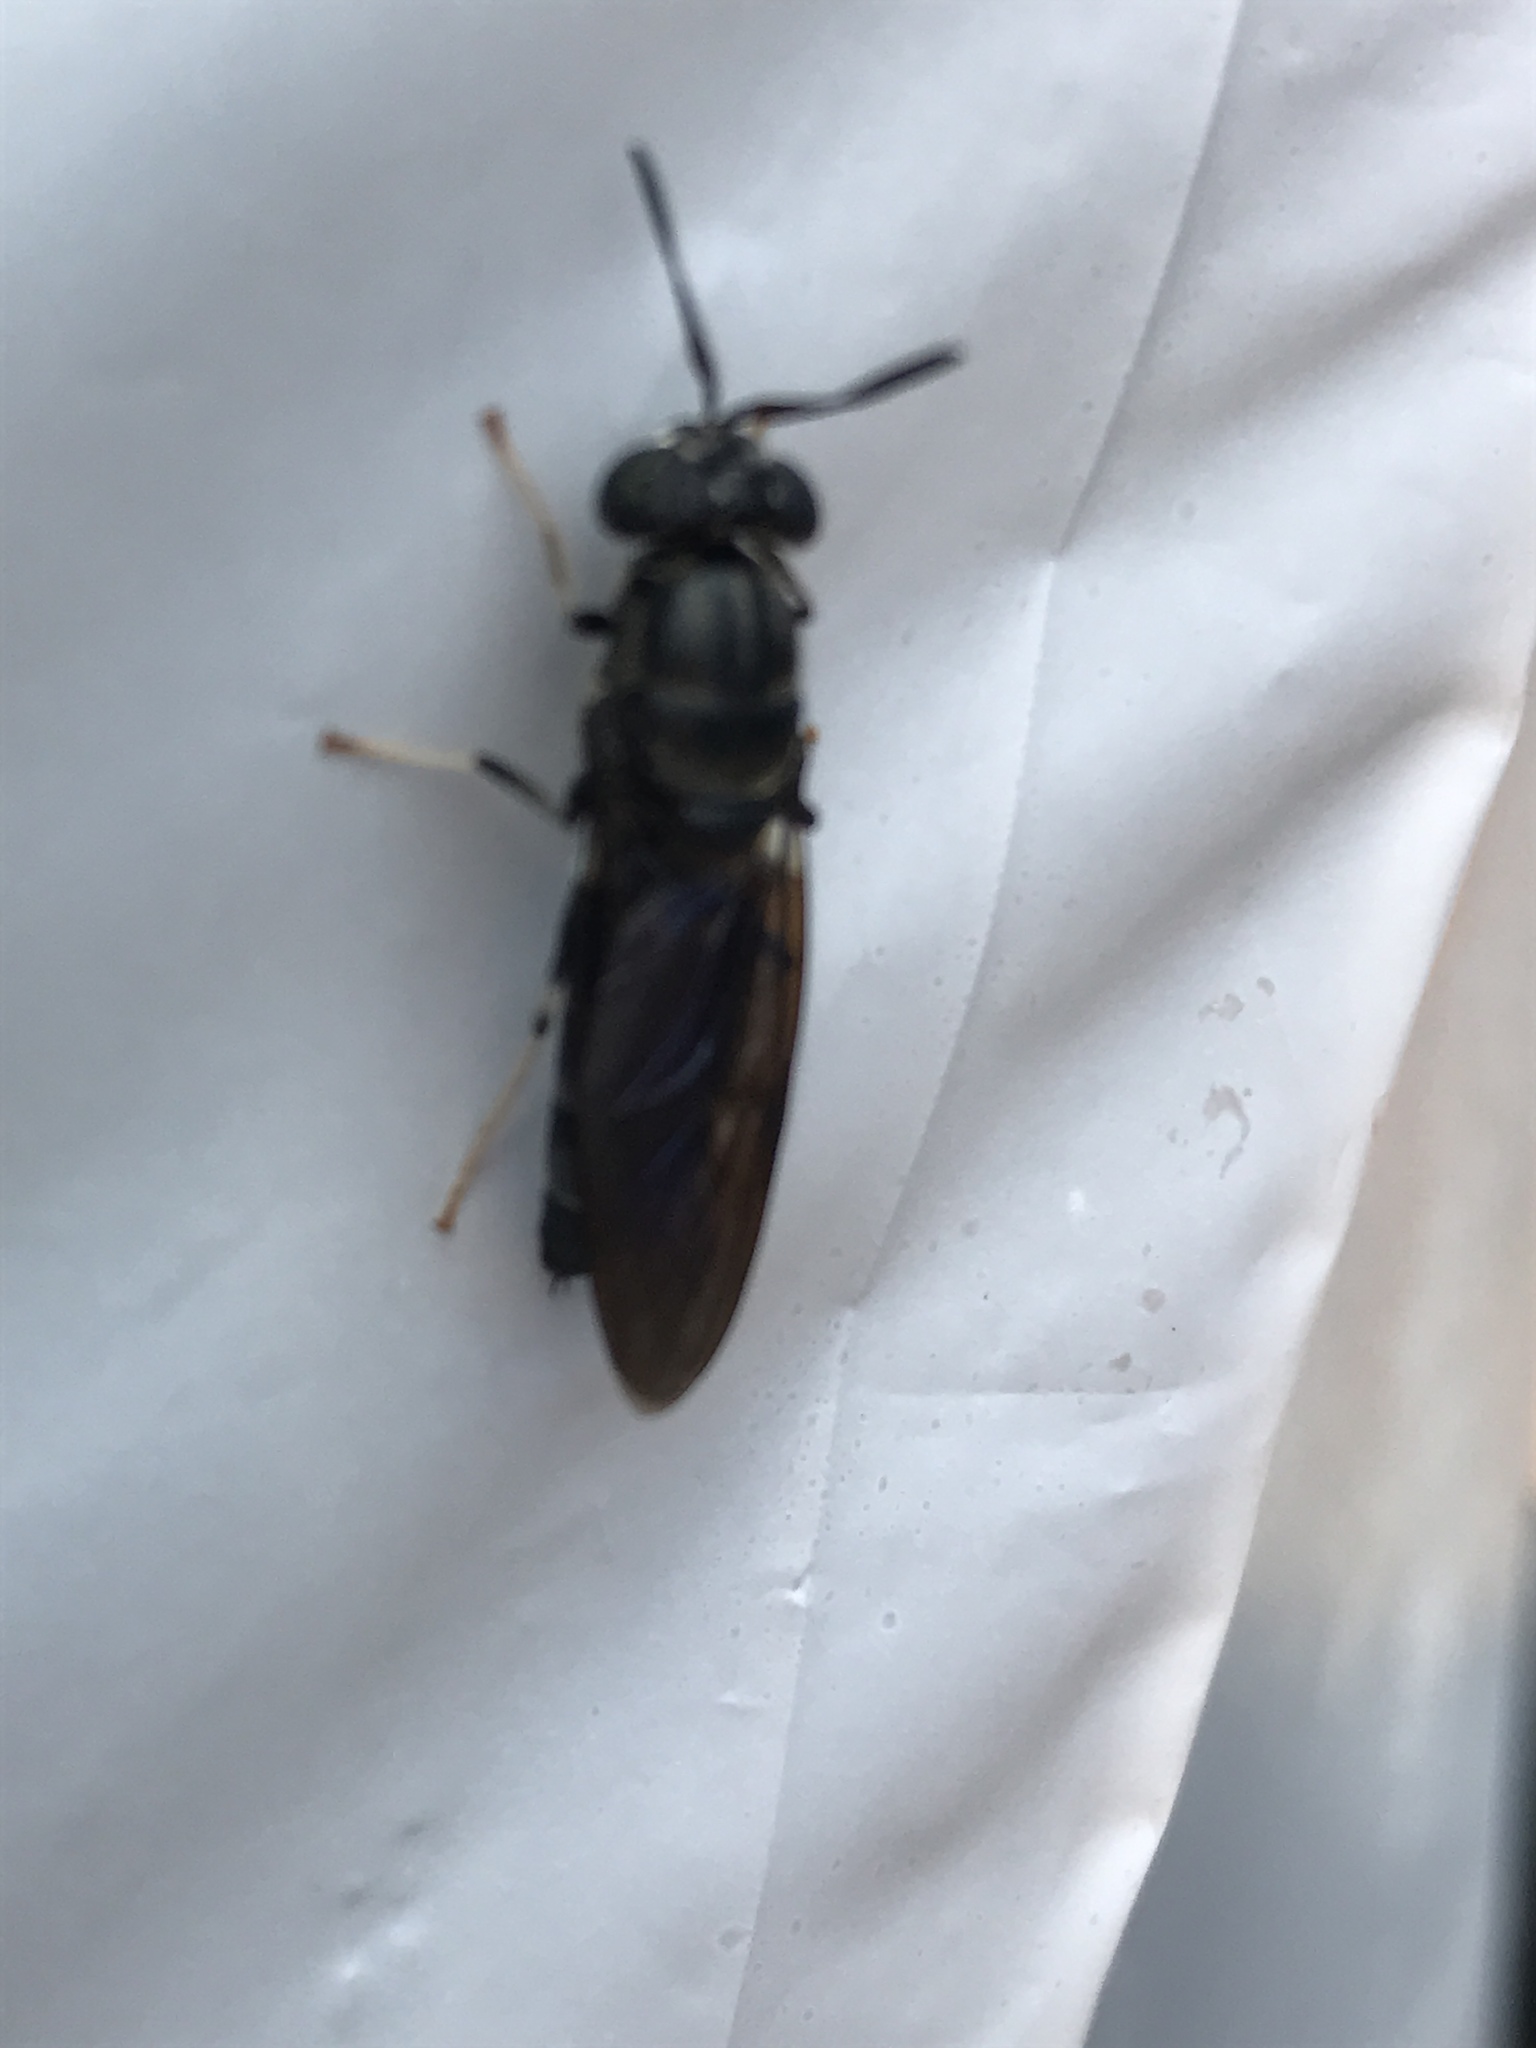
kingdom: Animalia
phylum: Arthropoda
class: Insecta
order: Diptera
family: Stratiomyidae
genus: Hermetia
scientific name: Hermetia illucens
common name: Black soldier fly
